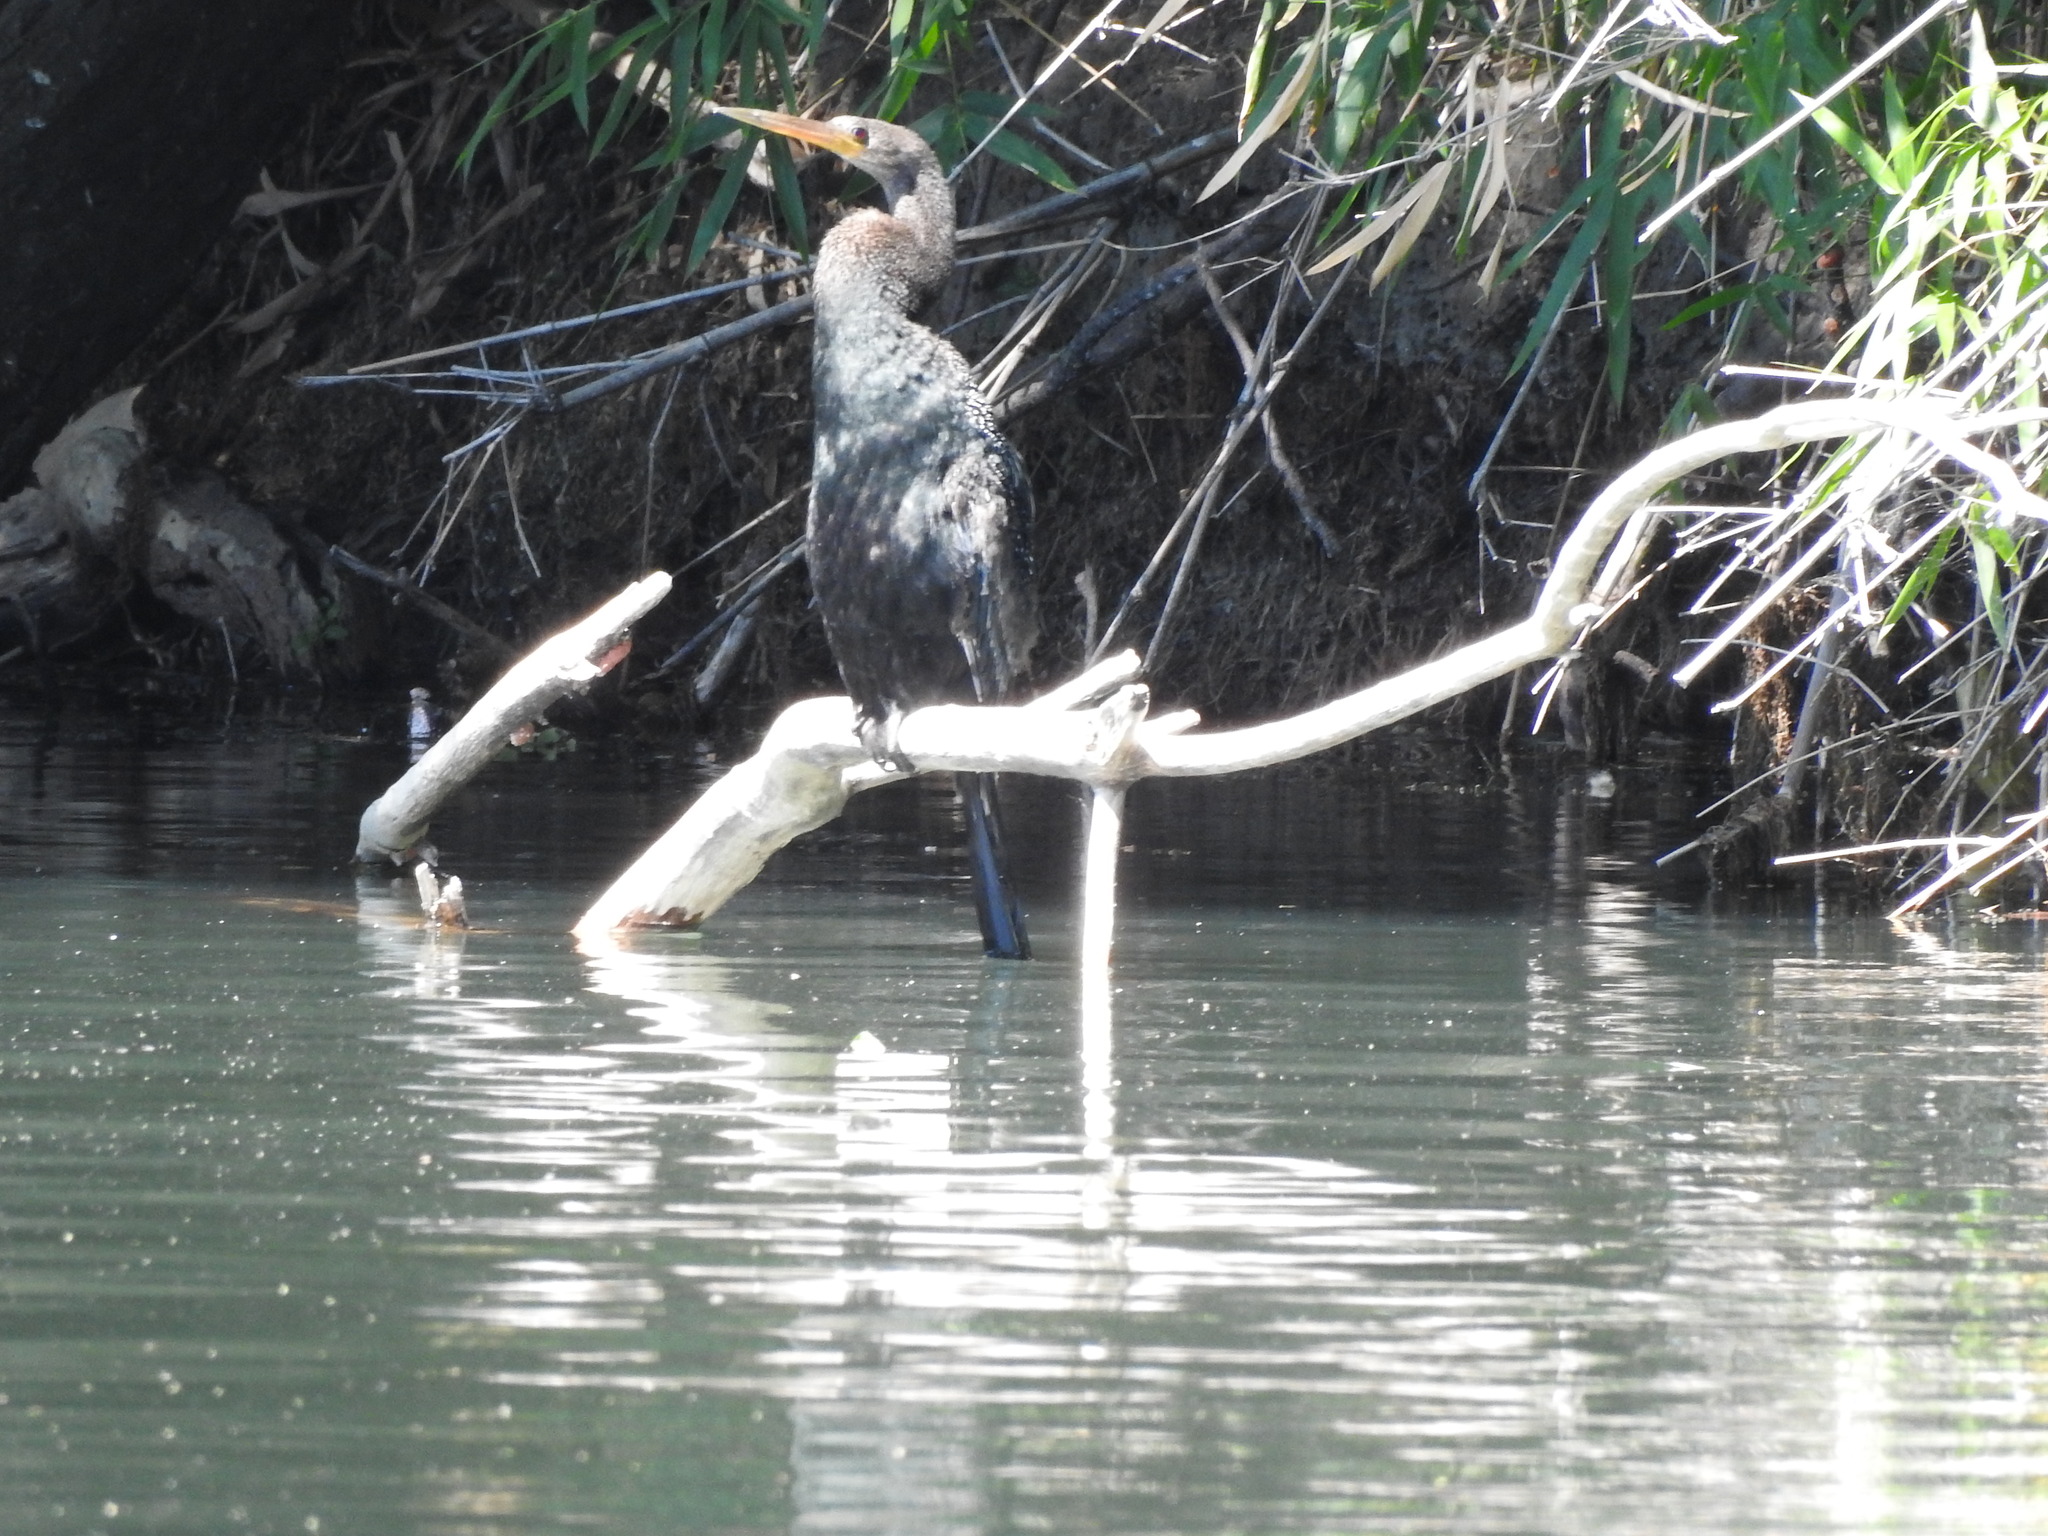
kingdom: Animalia
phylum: Chordata
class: Aves
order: Suliformes
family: Anhingidae
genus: Anhinga
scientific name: Anhinga anhinga
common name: Anhinga
